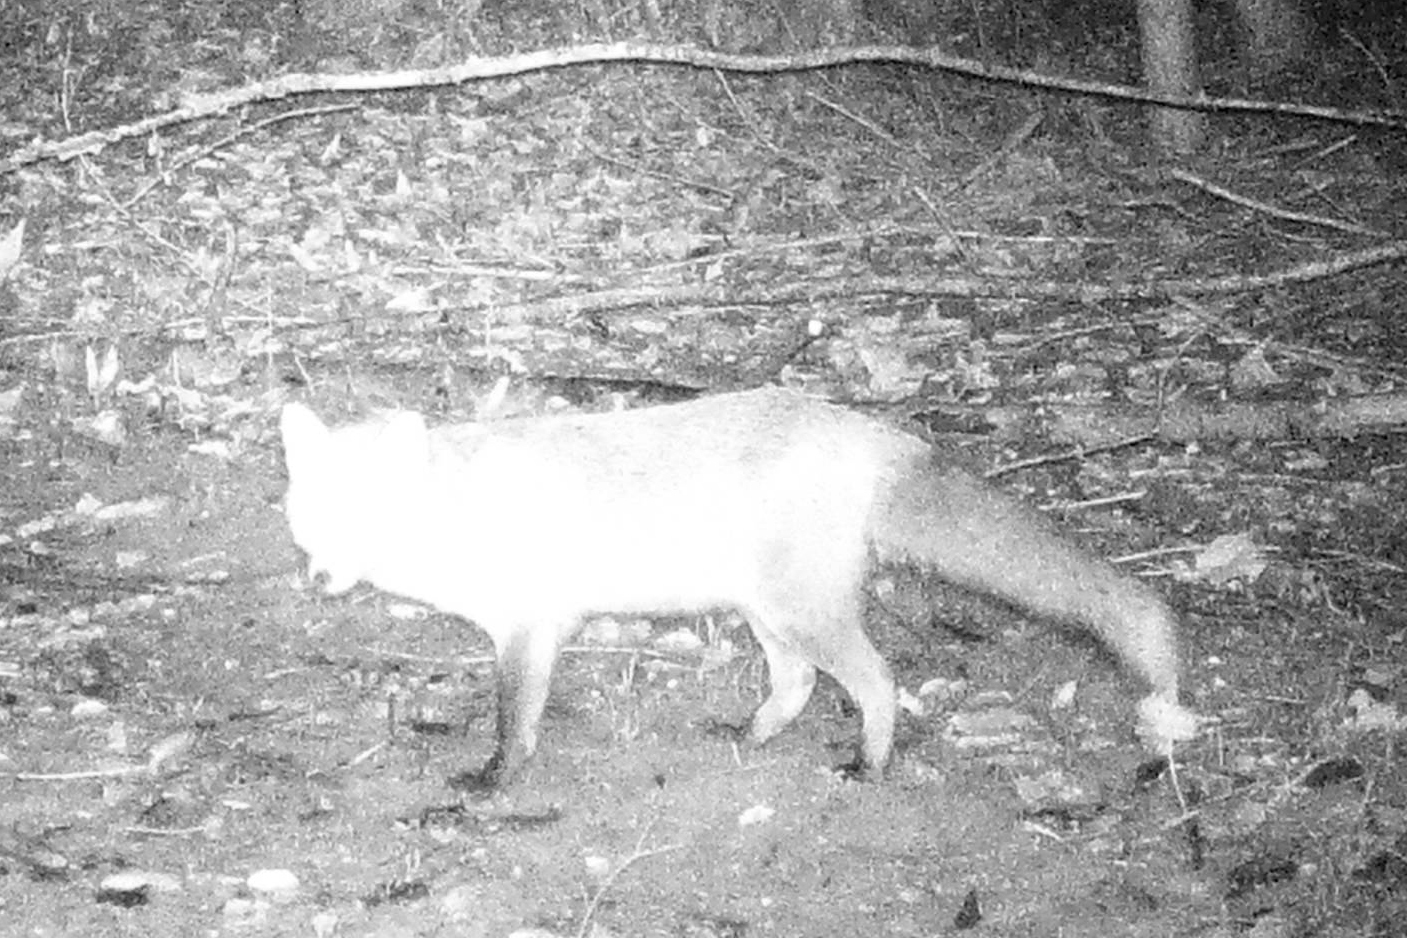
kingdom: Animalia
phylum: Chordata
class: Mammalia
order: Carnivora
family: Canidae
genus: Vulpes
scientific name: Vulpes vulpes
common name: Red fox
